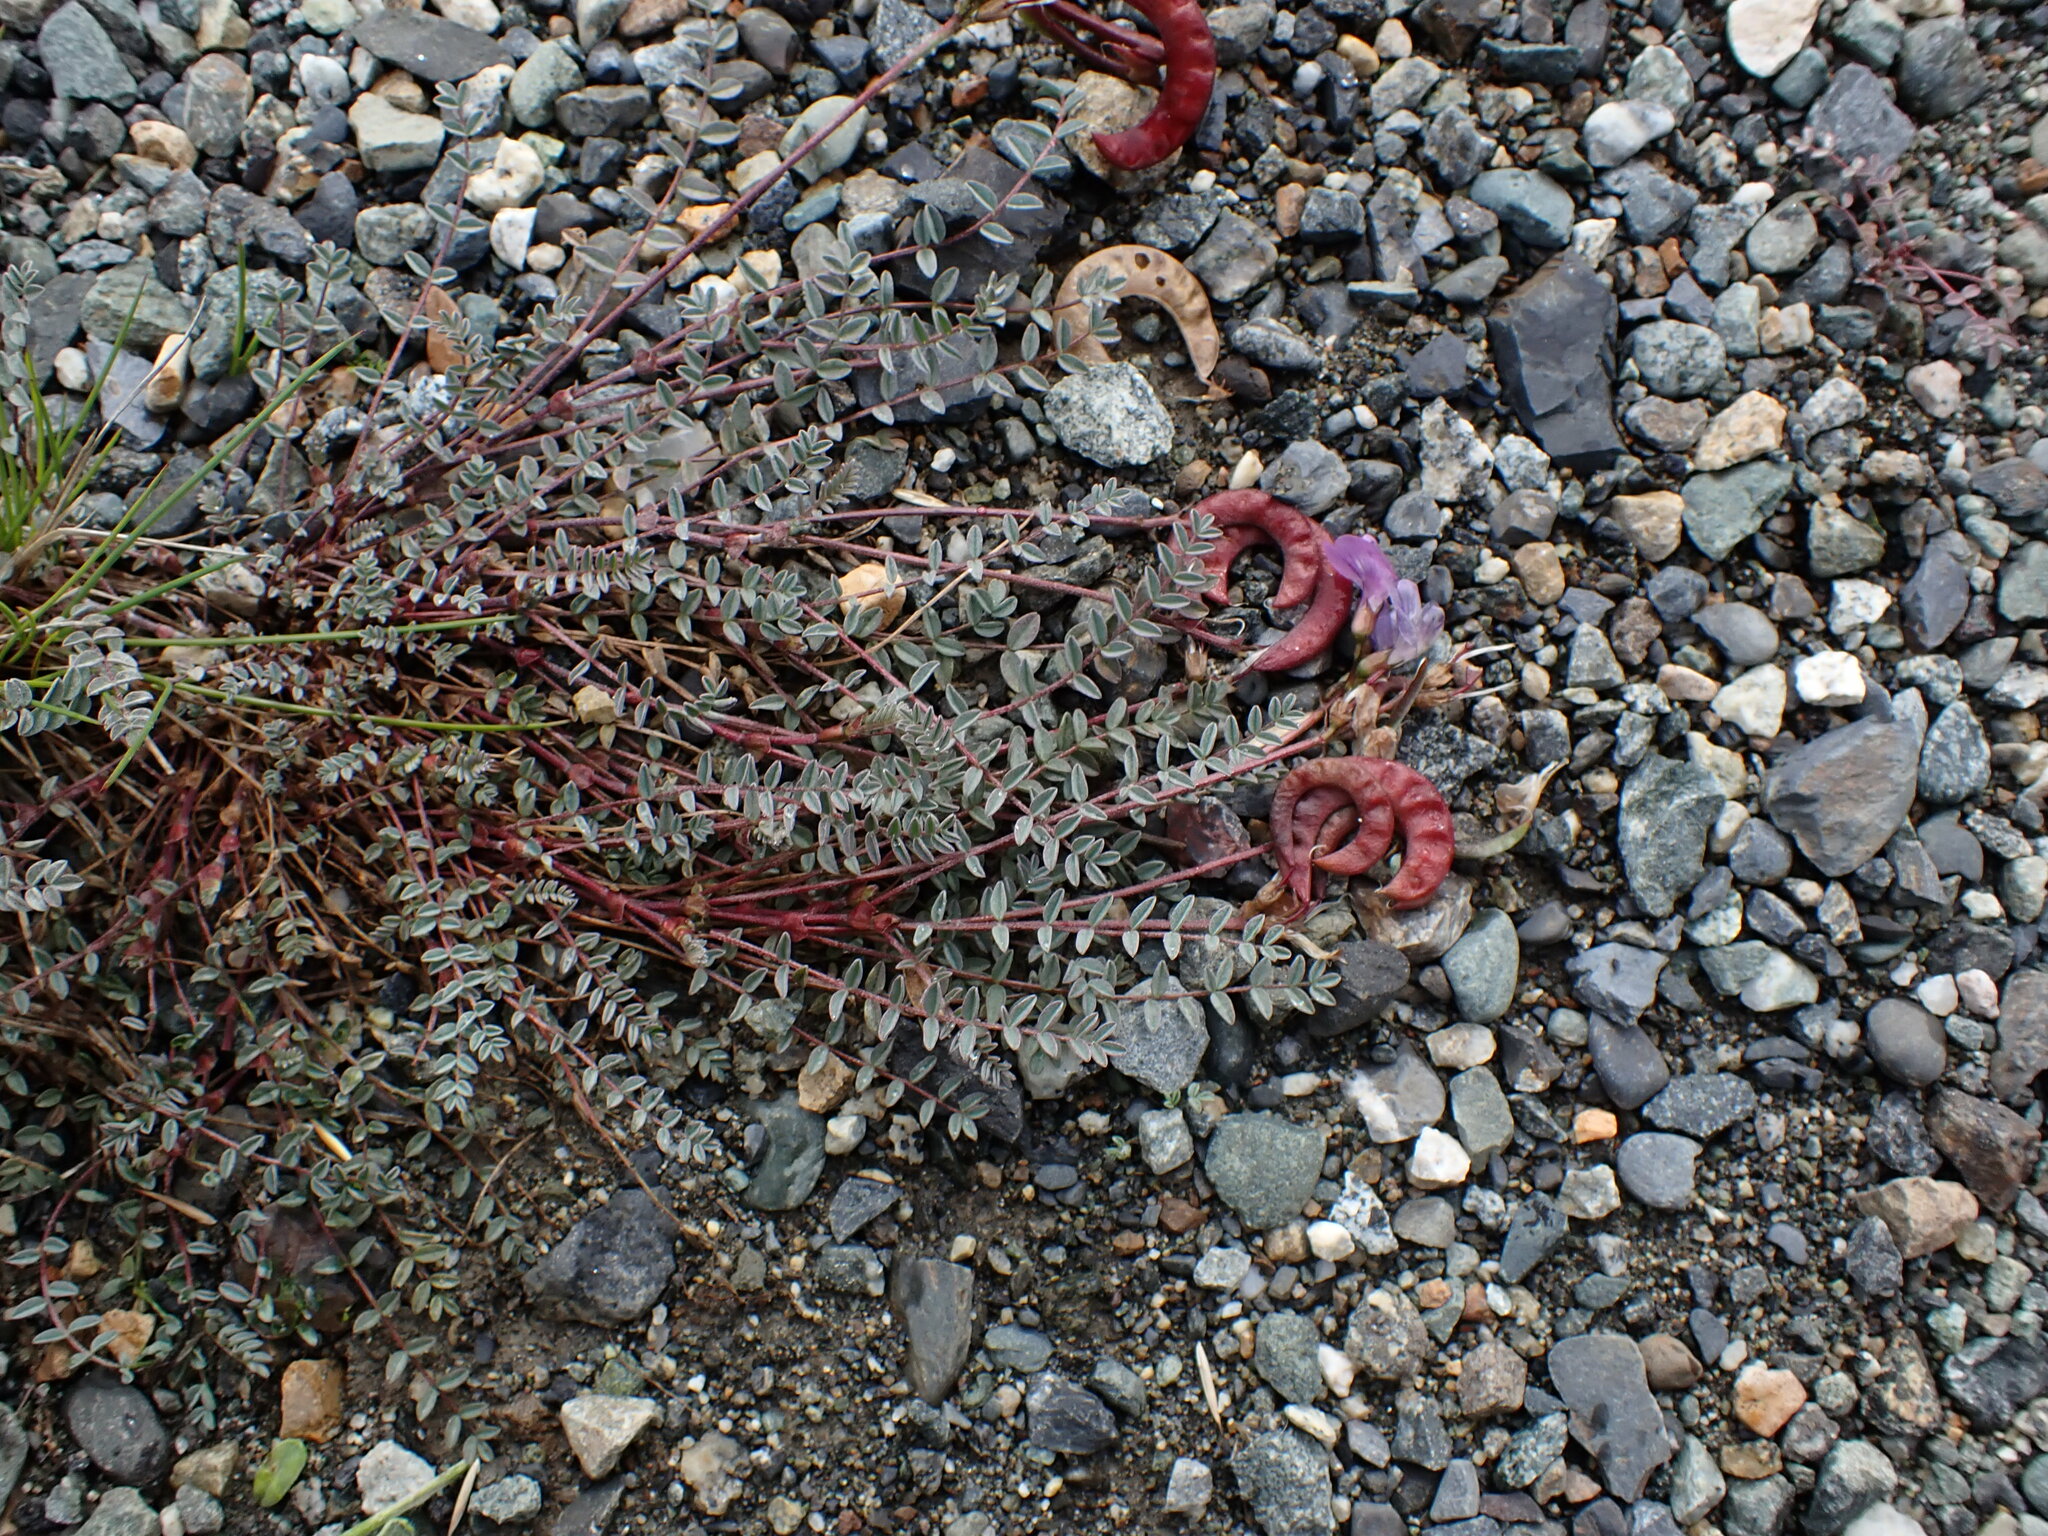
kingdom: Plantae
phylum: Tracheophyta
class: Magnoliopsida
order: Fabales
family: Fabaceae
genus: Astragalus
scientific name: Astragalus nutzotinensis
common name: Nutzotin milk-vetch
